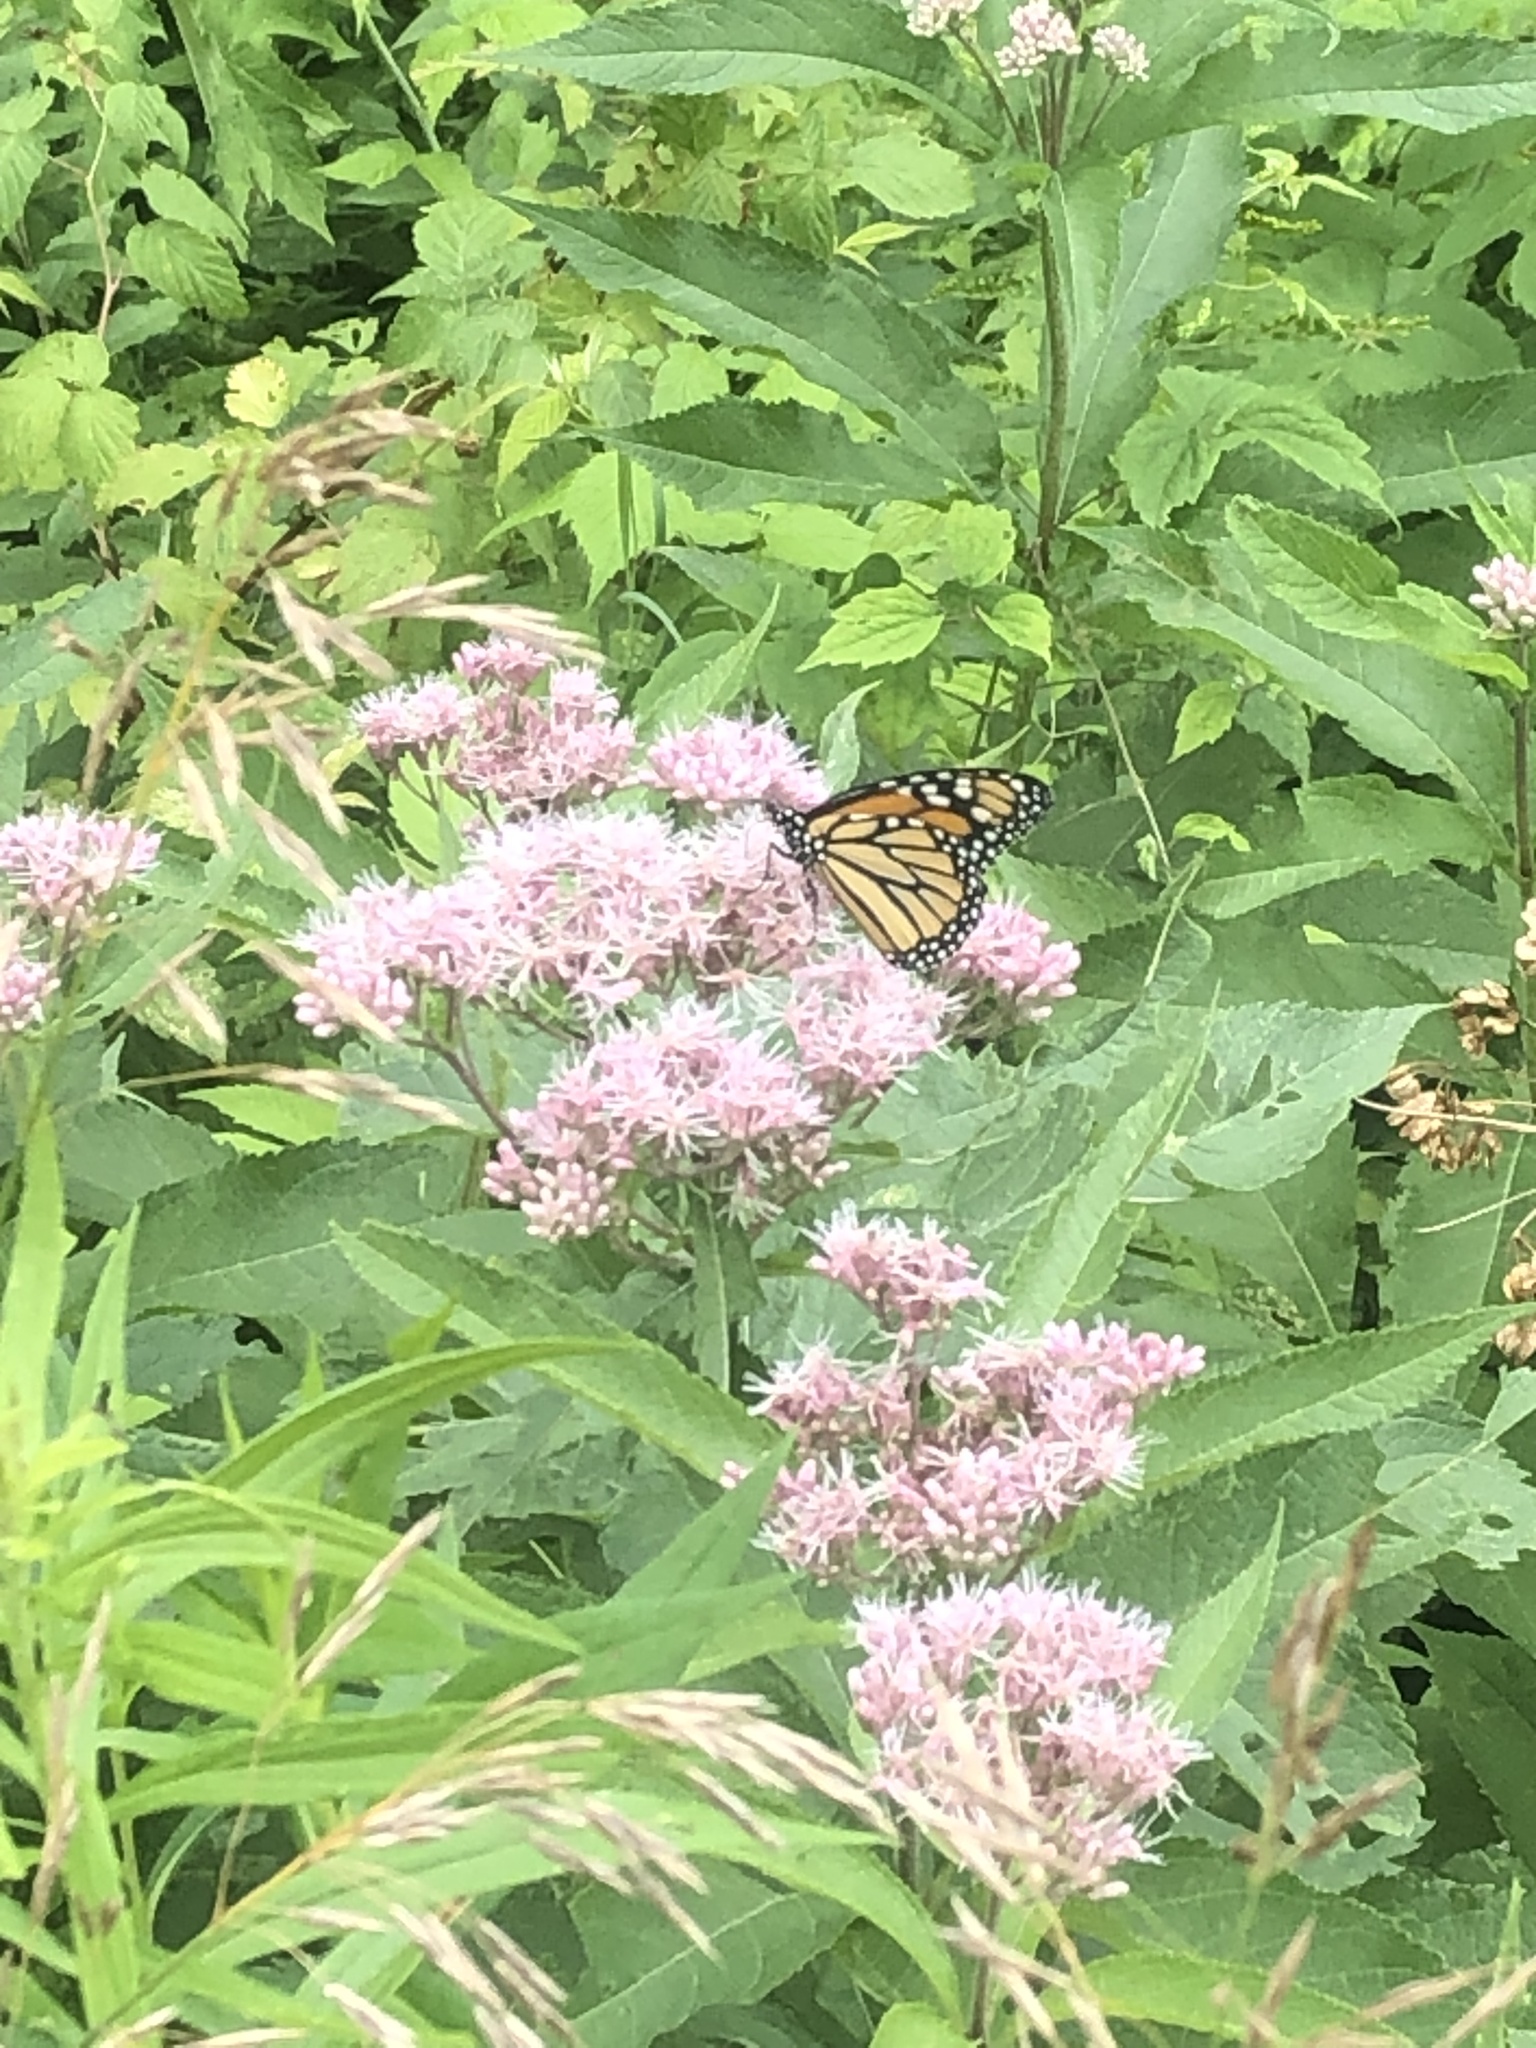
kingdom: Animalia
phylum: Arthropoda
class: Insecta
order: Lepidoptera
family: Nymphalidae
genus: Danaus
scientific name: Danaus plexippus
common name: Monarch
